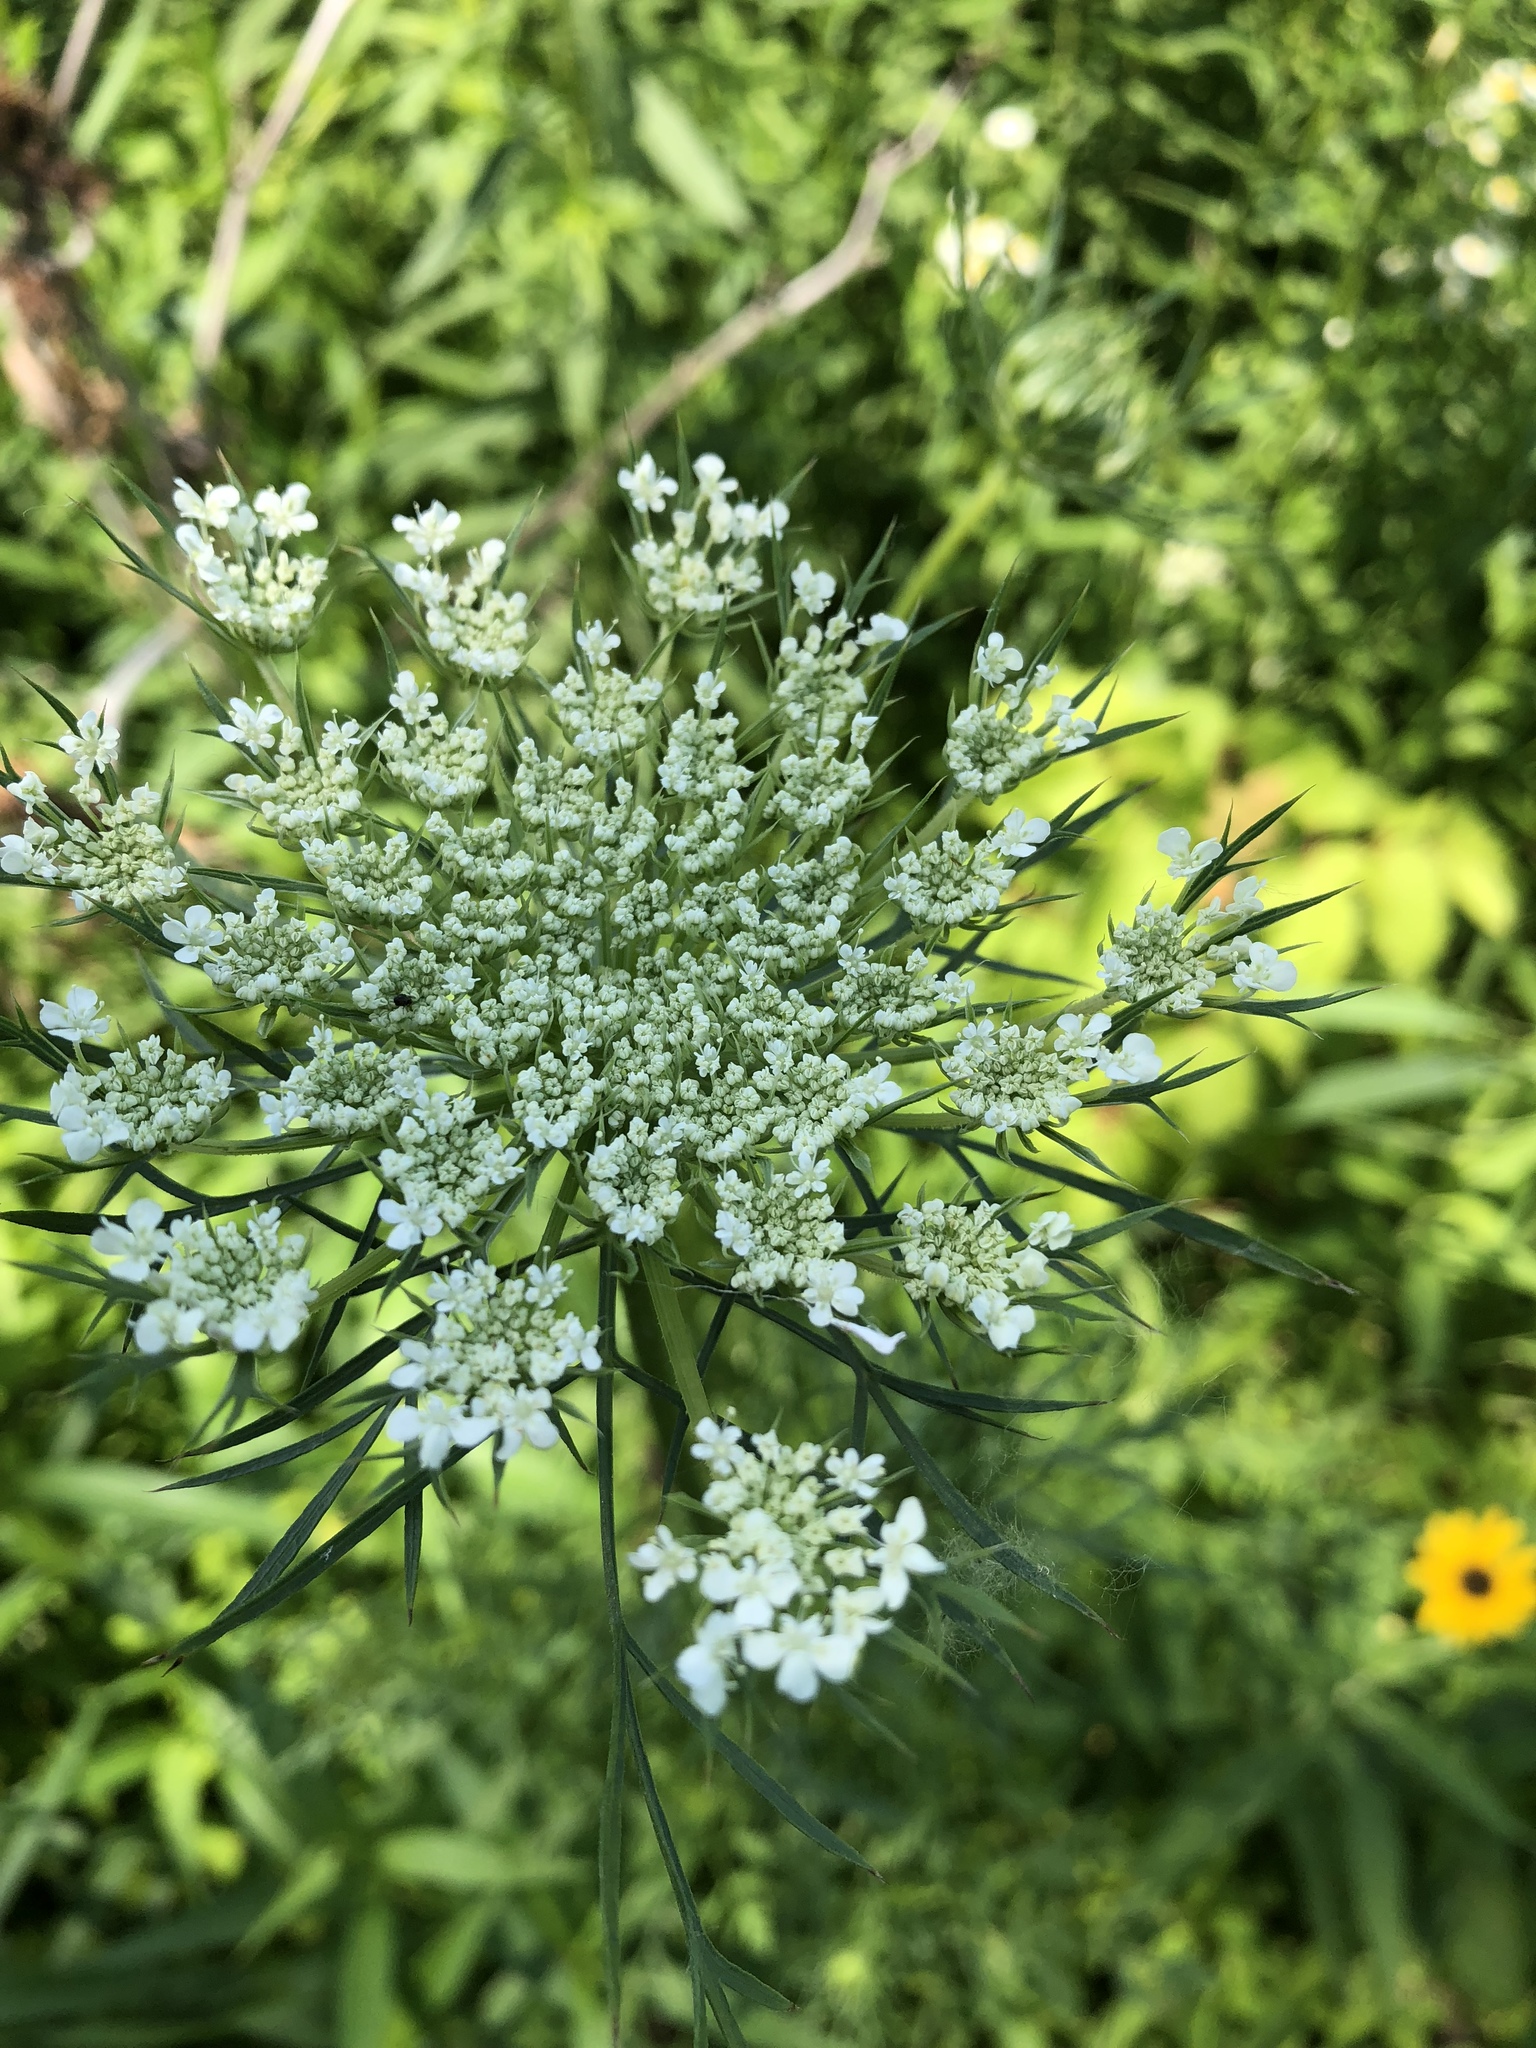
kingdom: Plantae
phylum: Tracheophyta
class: Magnoliopsida
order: Apiales
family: Apiaceae
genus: Daucus
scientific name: Daucus carota
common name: Wild carrot
